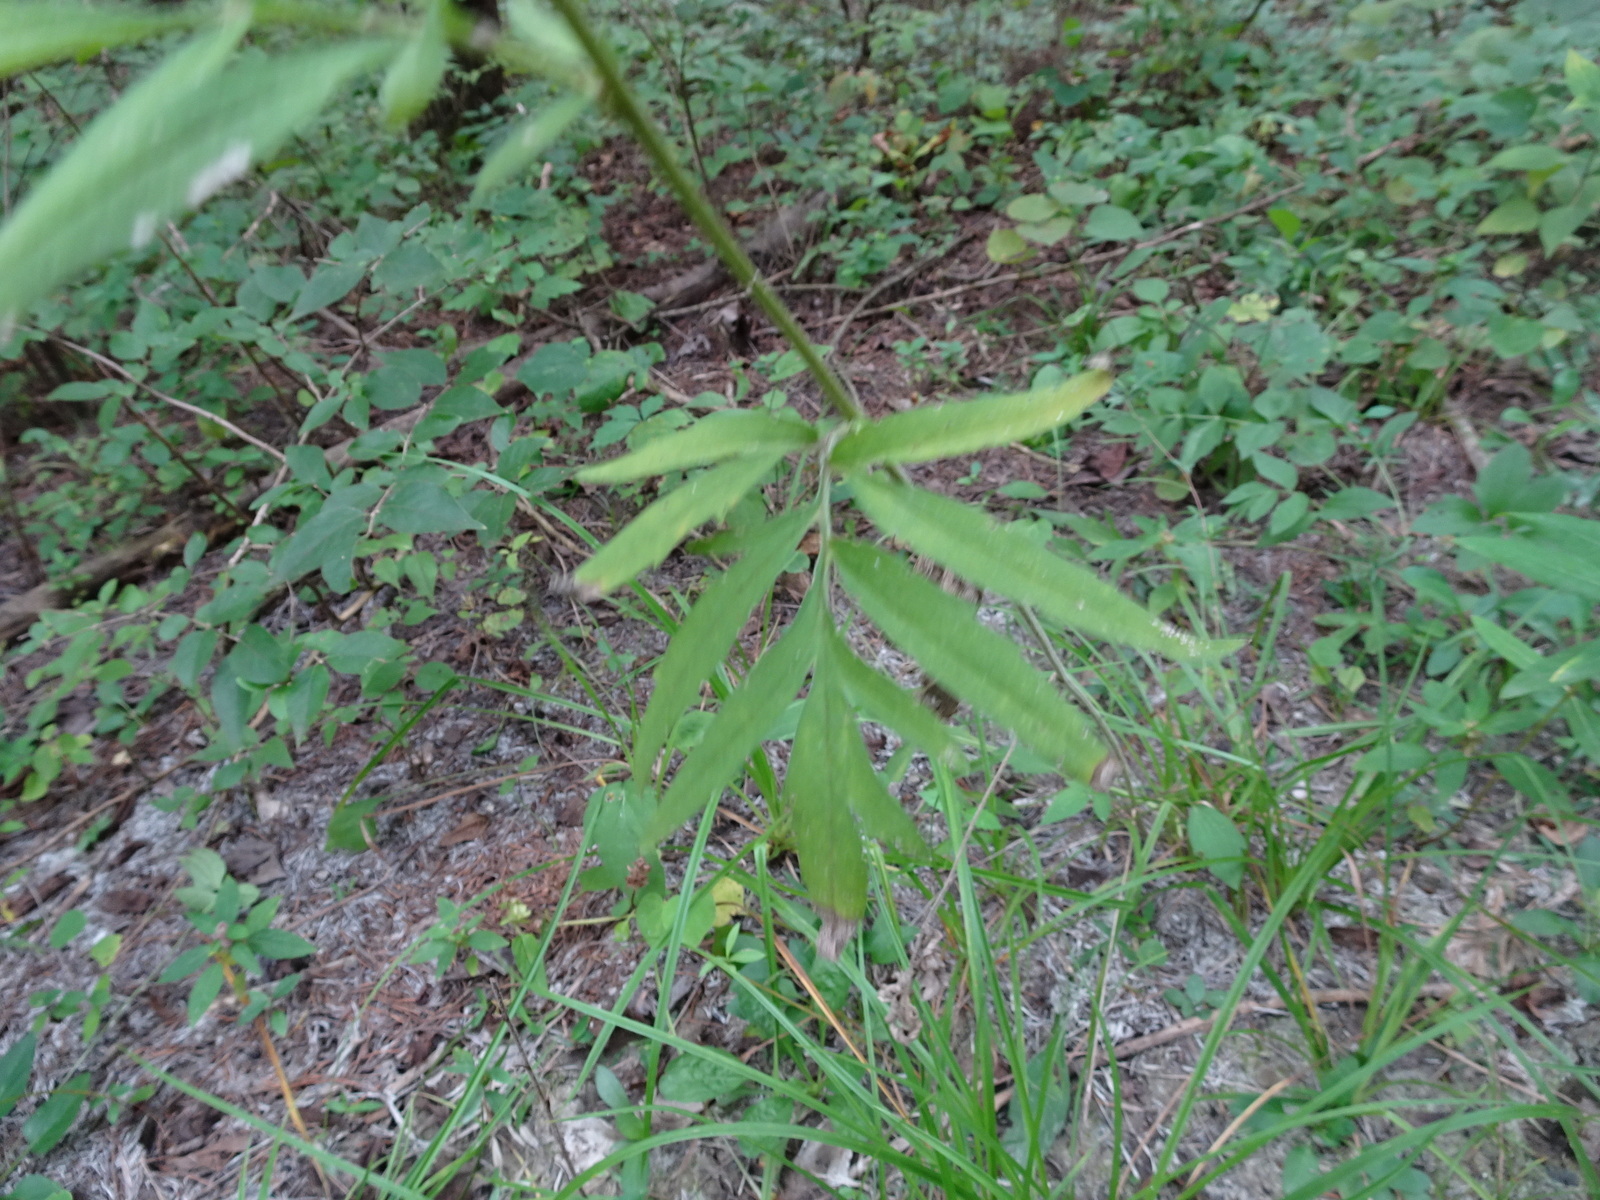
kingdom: Plantae
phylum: Tracheophyta
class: Magnoliopsida
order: Asterales
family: Asteraceae
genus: Ratibida
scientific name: Ratibida pinnata
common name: Drooping prairie-coneflower
